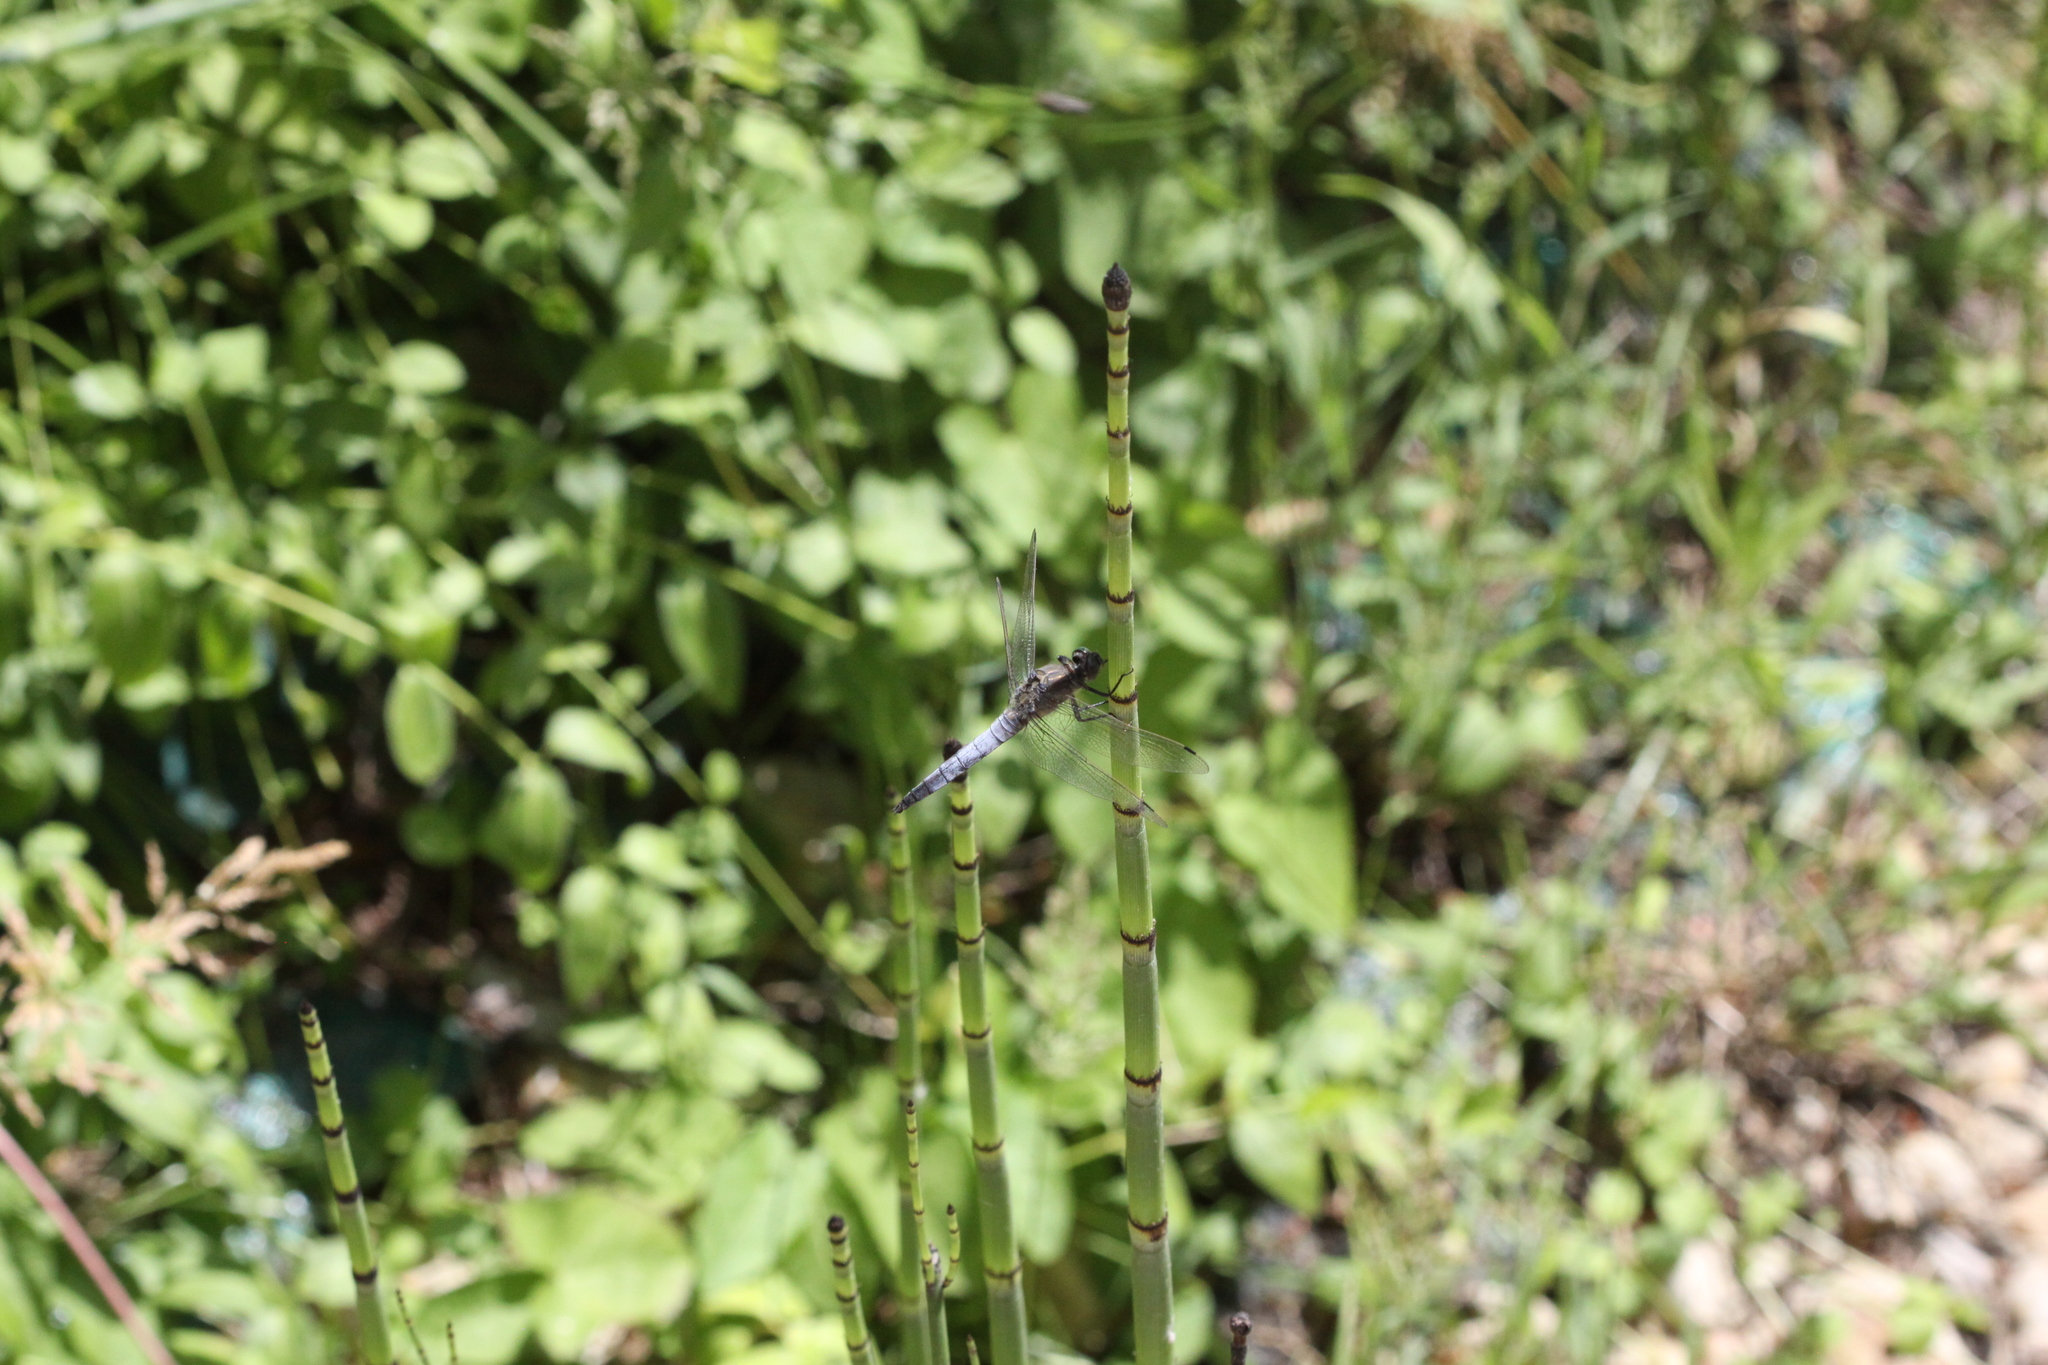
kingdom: Animalia
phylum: Arthropoda
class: Insecta
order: Odonata
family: Libellulidae
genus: Orthetrum
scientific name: Orthetrum cancellatum
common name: Black-tailed skimmer
